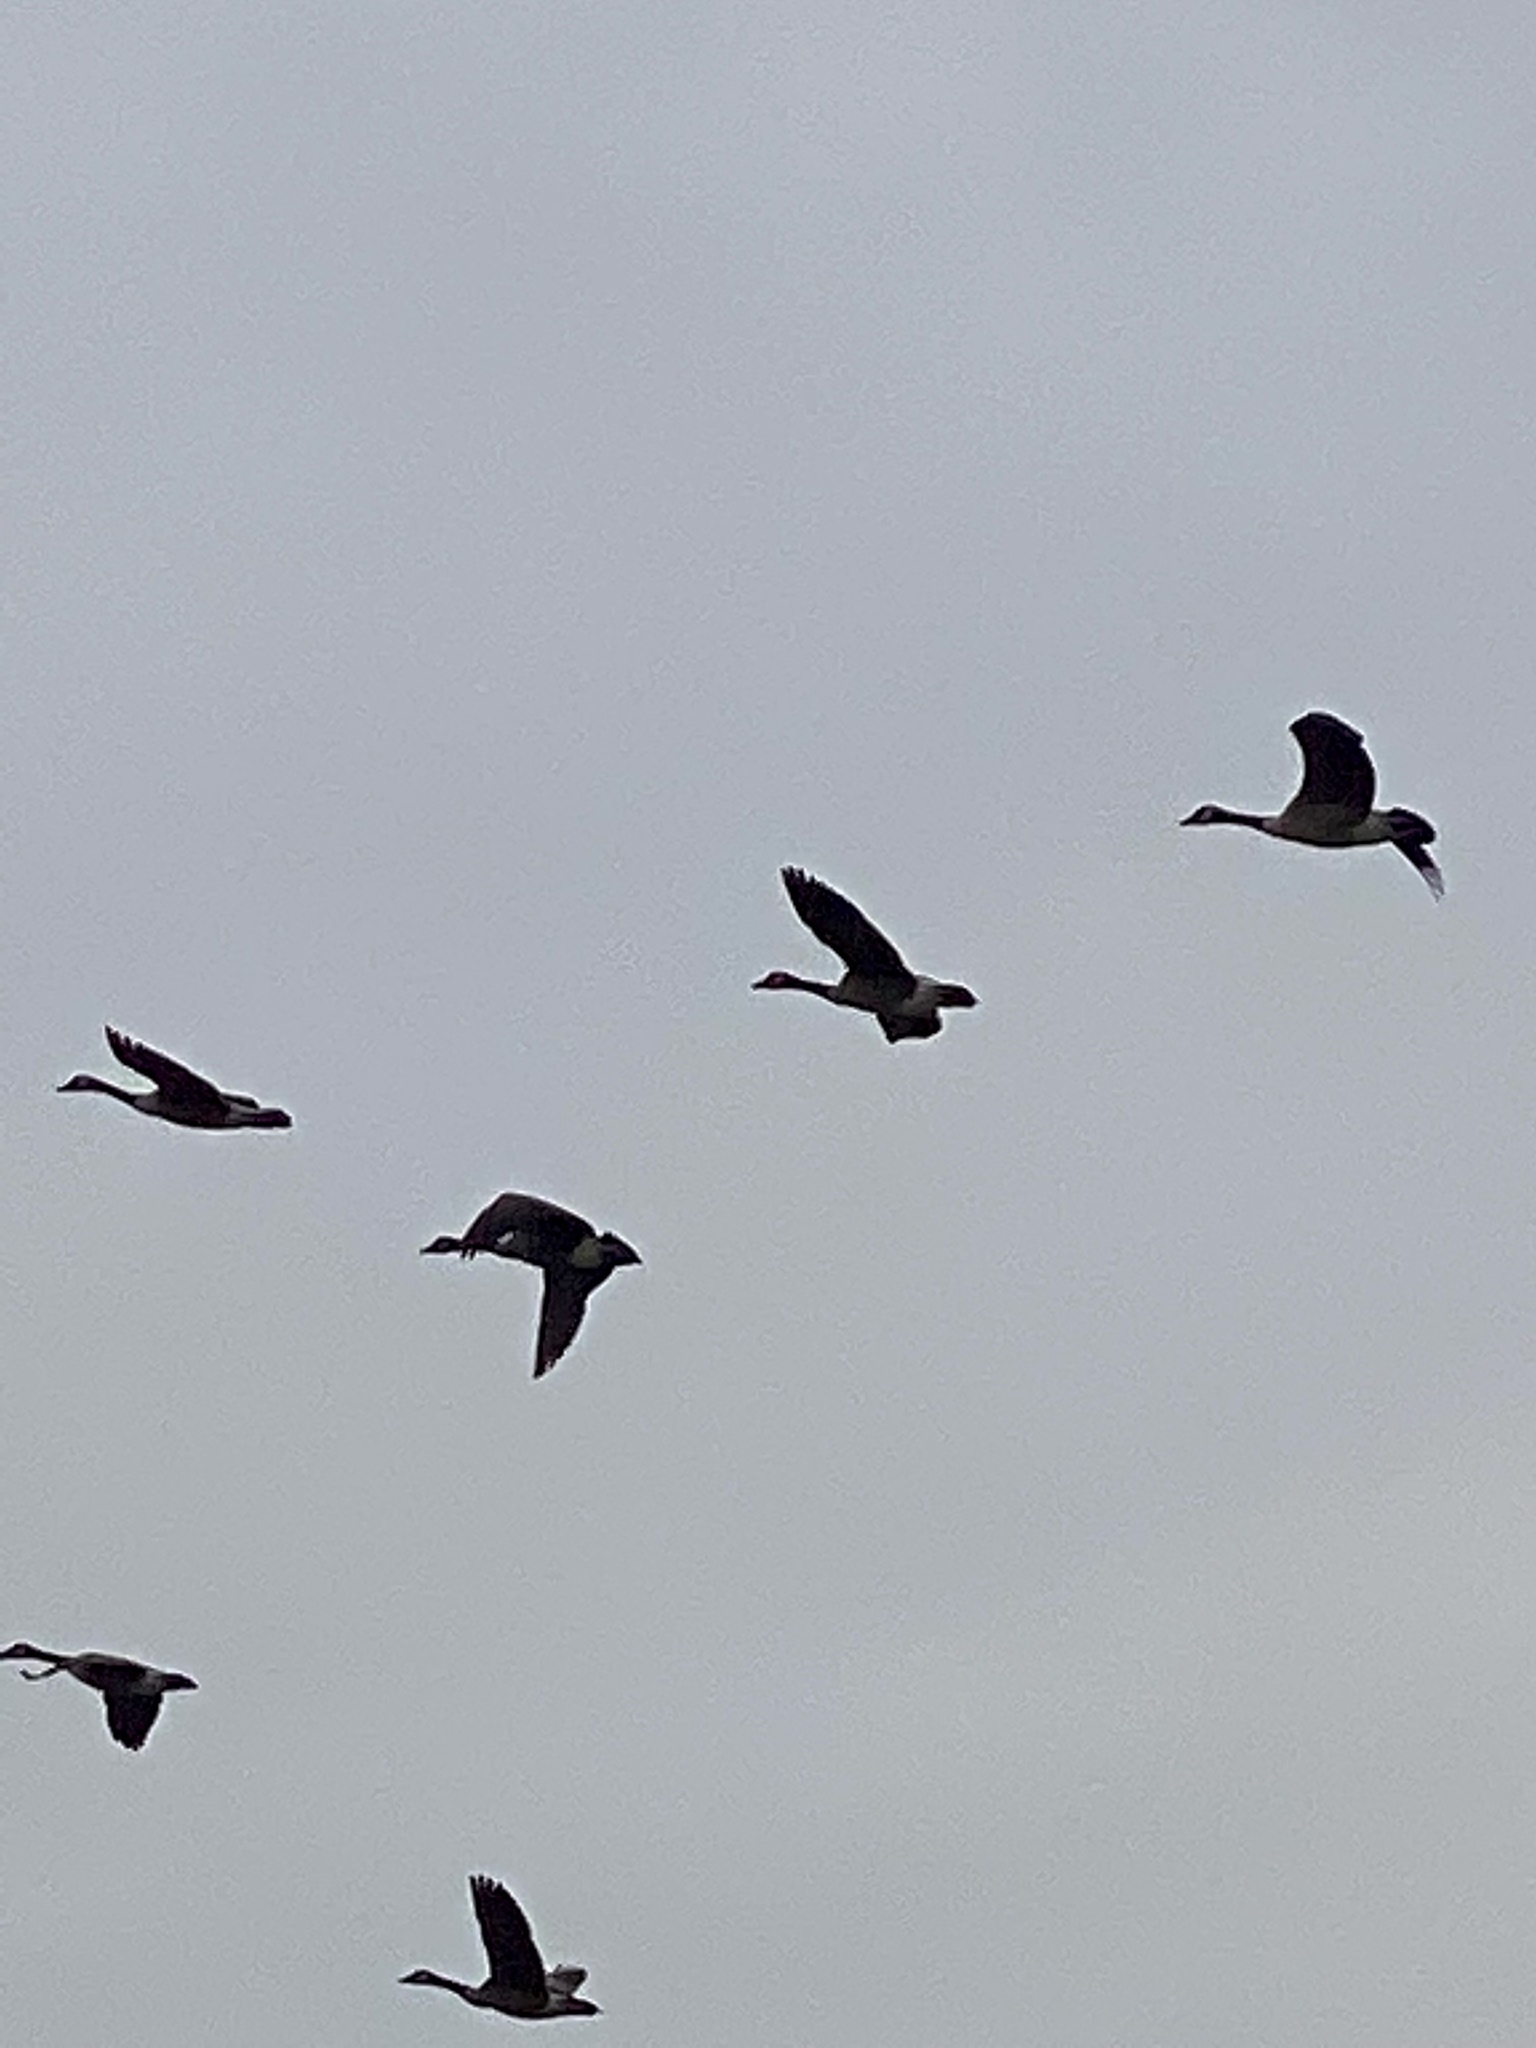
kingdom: Animalia
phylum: Chordata
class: Aves
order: Anseriformes
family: Anatidae
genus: Branta
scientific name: Branta canadensis
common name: Canada goose
